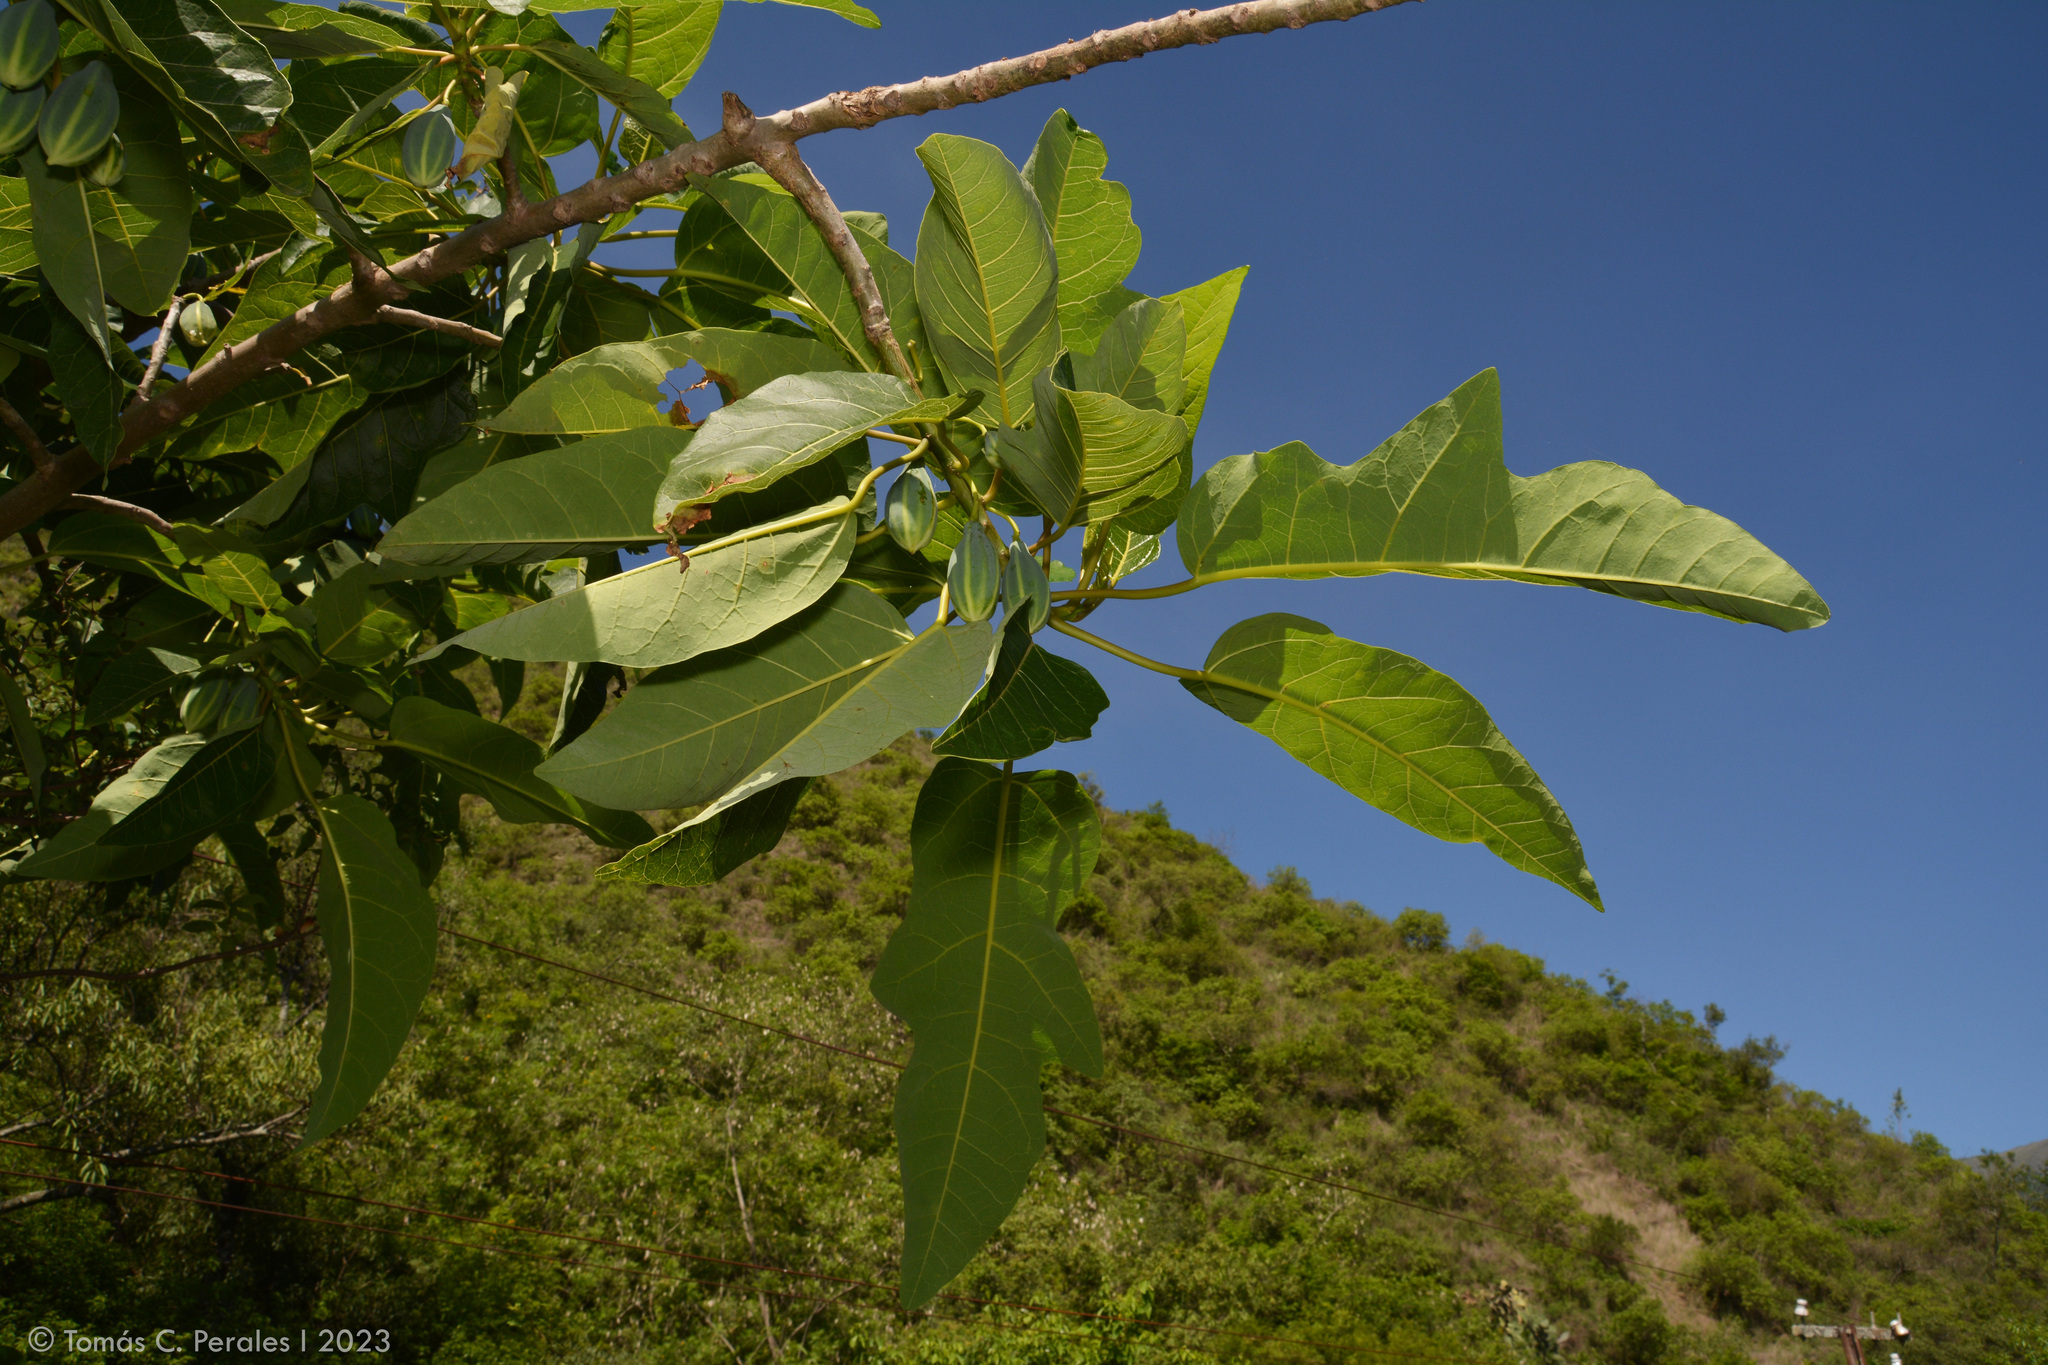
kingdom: Plantae
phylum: Tracheophyta
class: Magnoliopsida
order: Brassicales
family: Caricaceae
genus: Vasconcellea
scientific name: Vasconcellea quercifolia
